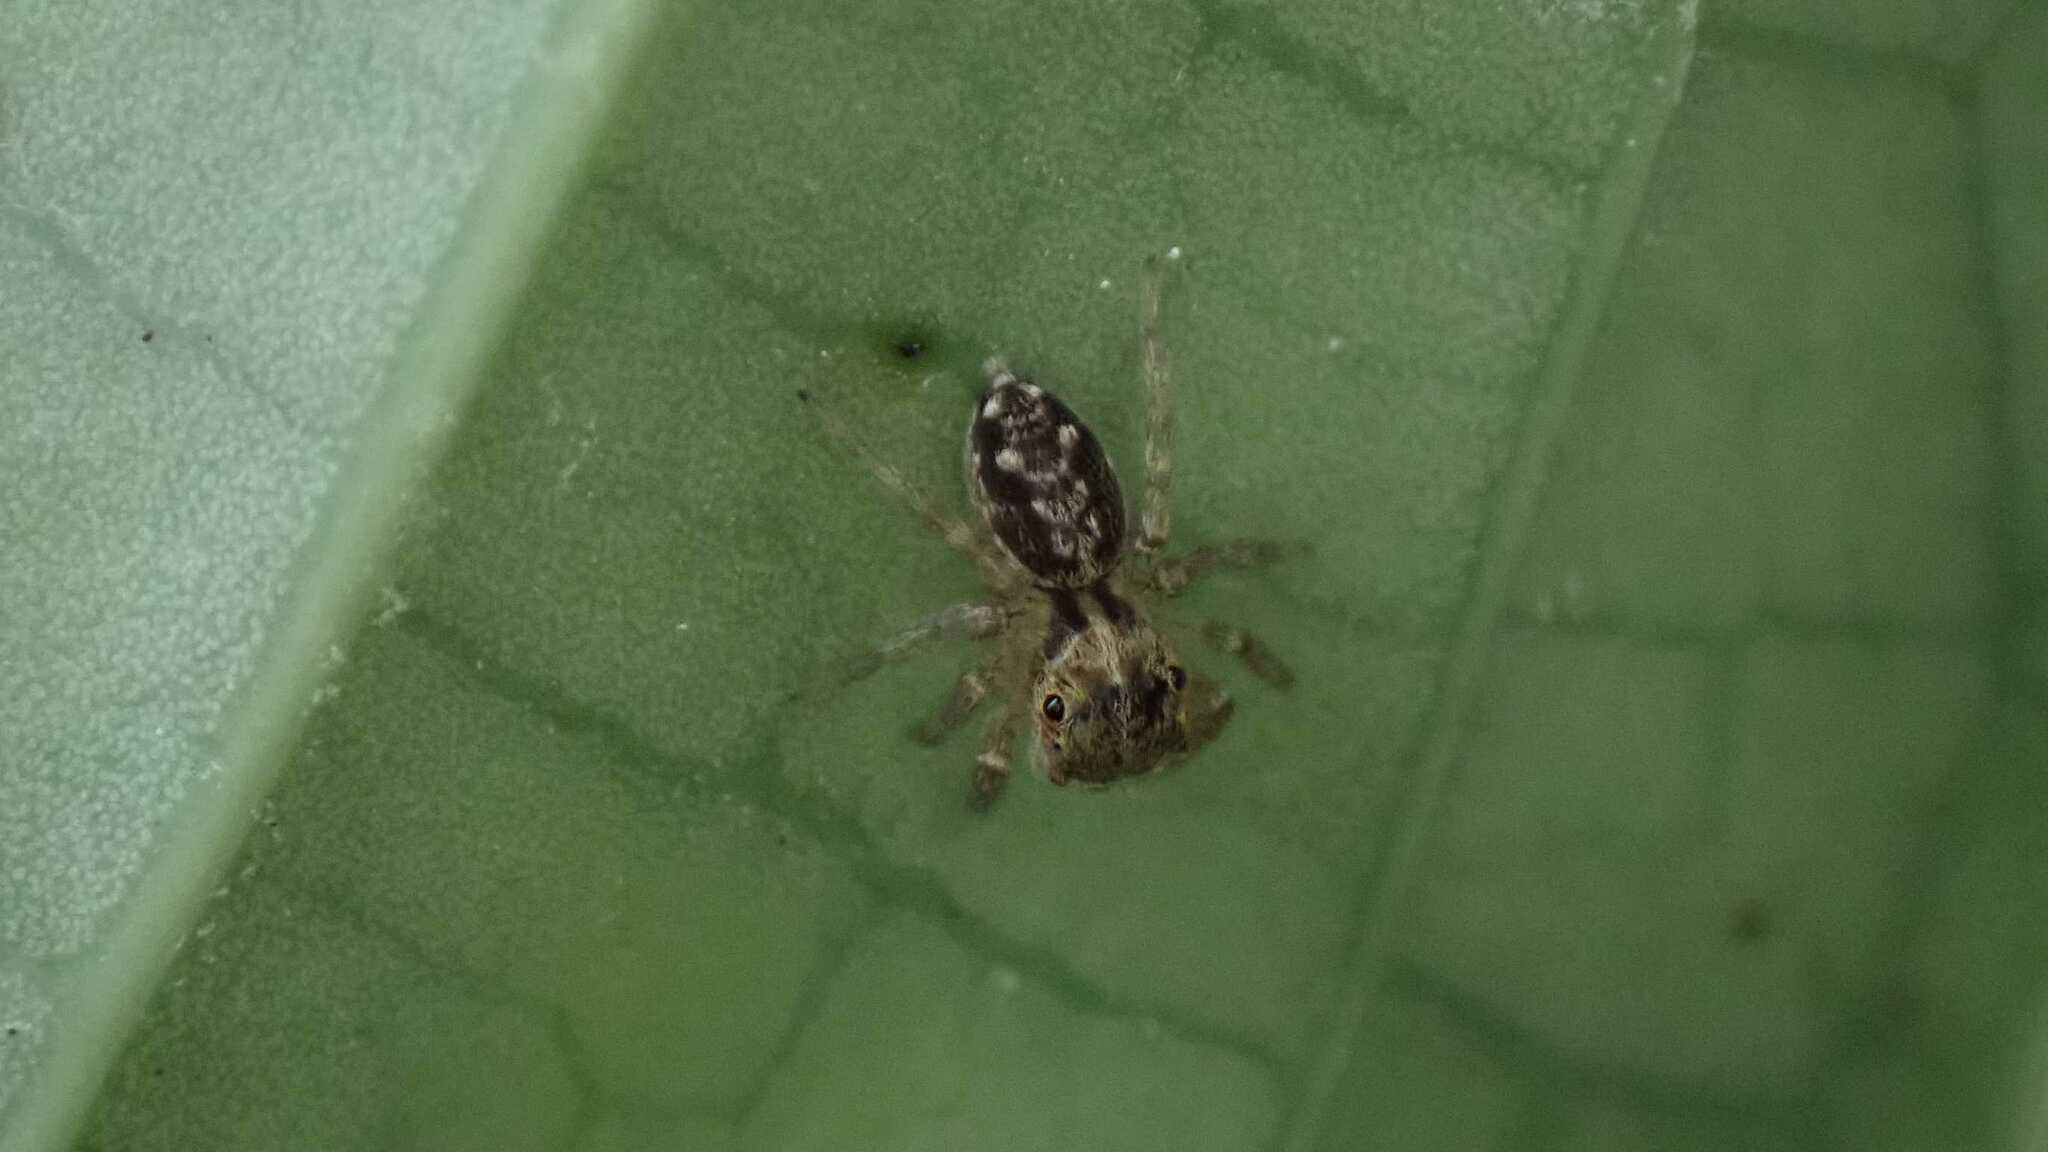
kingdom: Animalia
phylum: Arthropoda
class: Arachnida
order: Araneae
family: Salticidae
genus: Hasarius
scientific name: Hasarius adansoni
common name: Jumping spider
